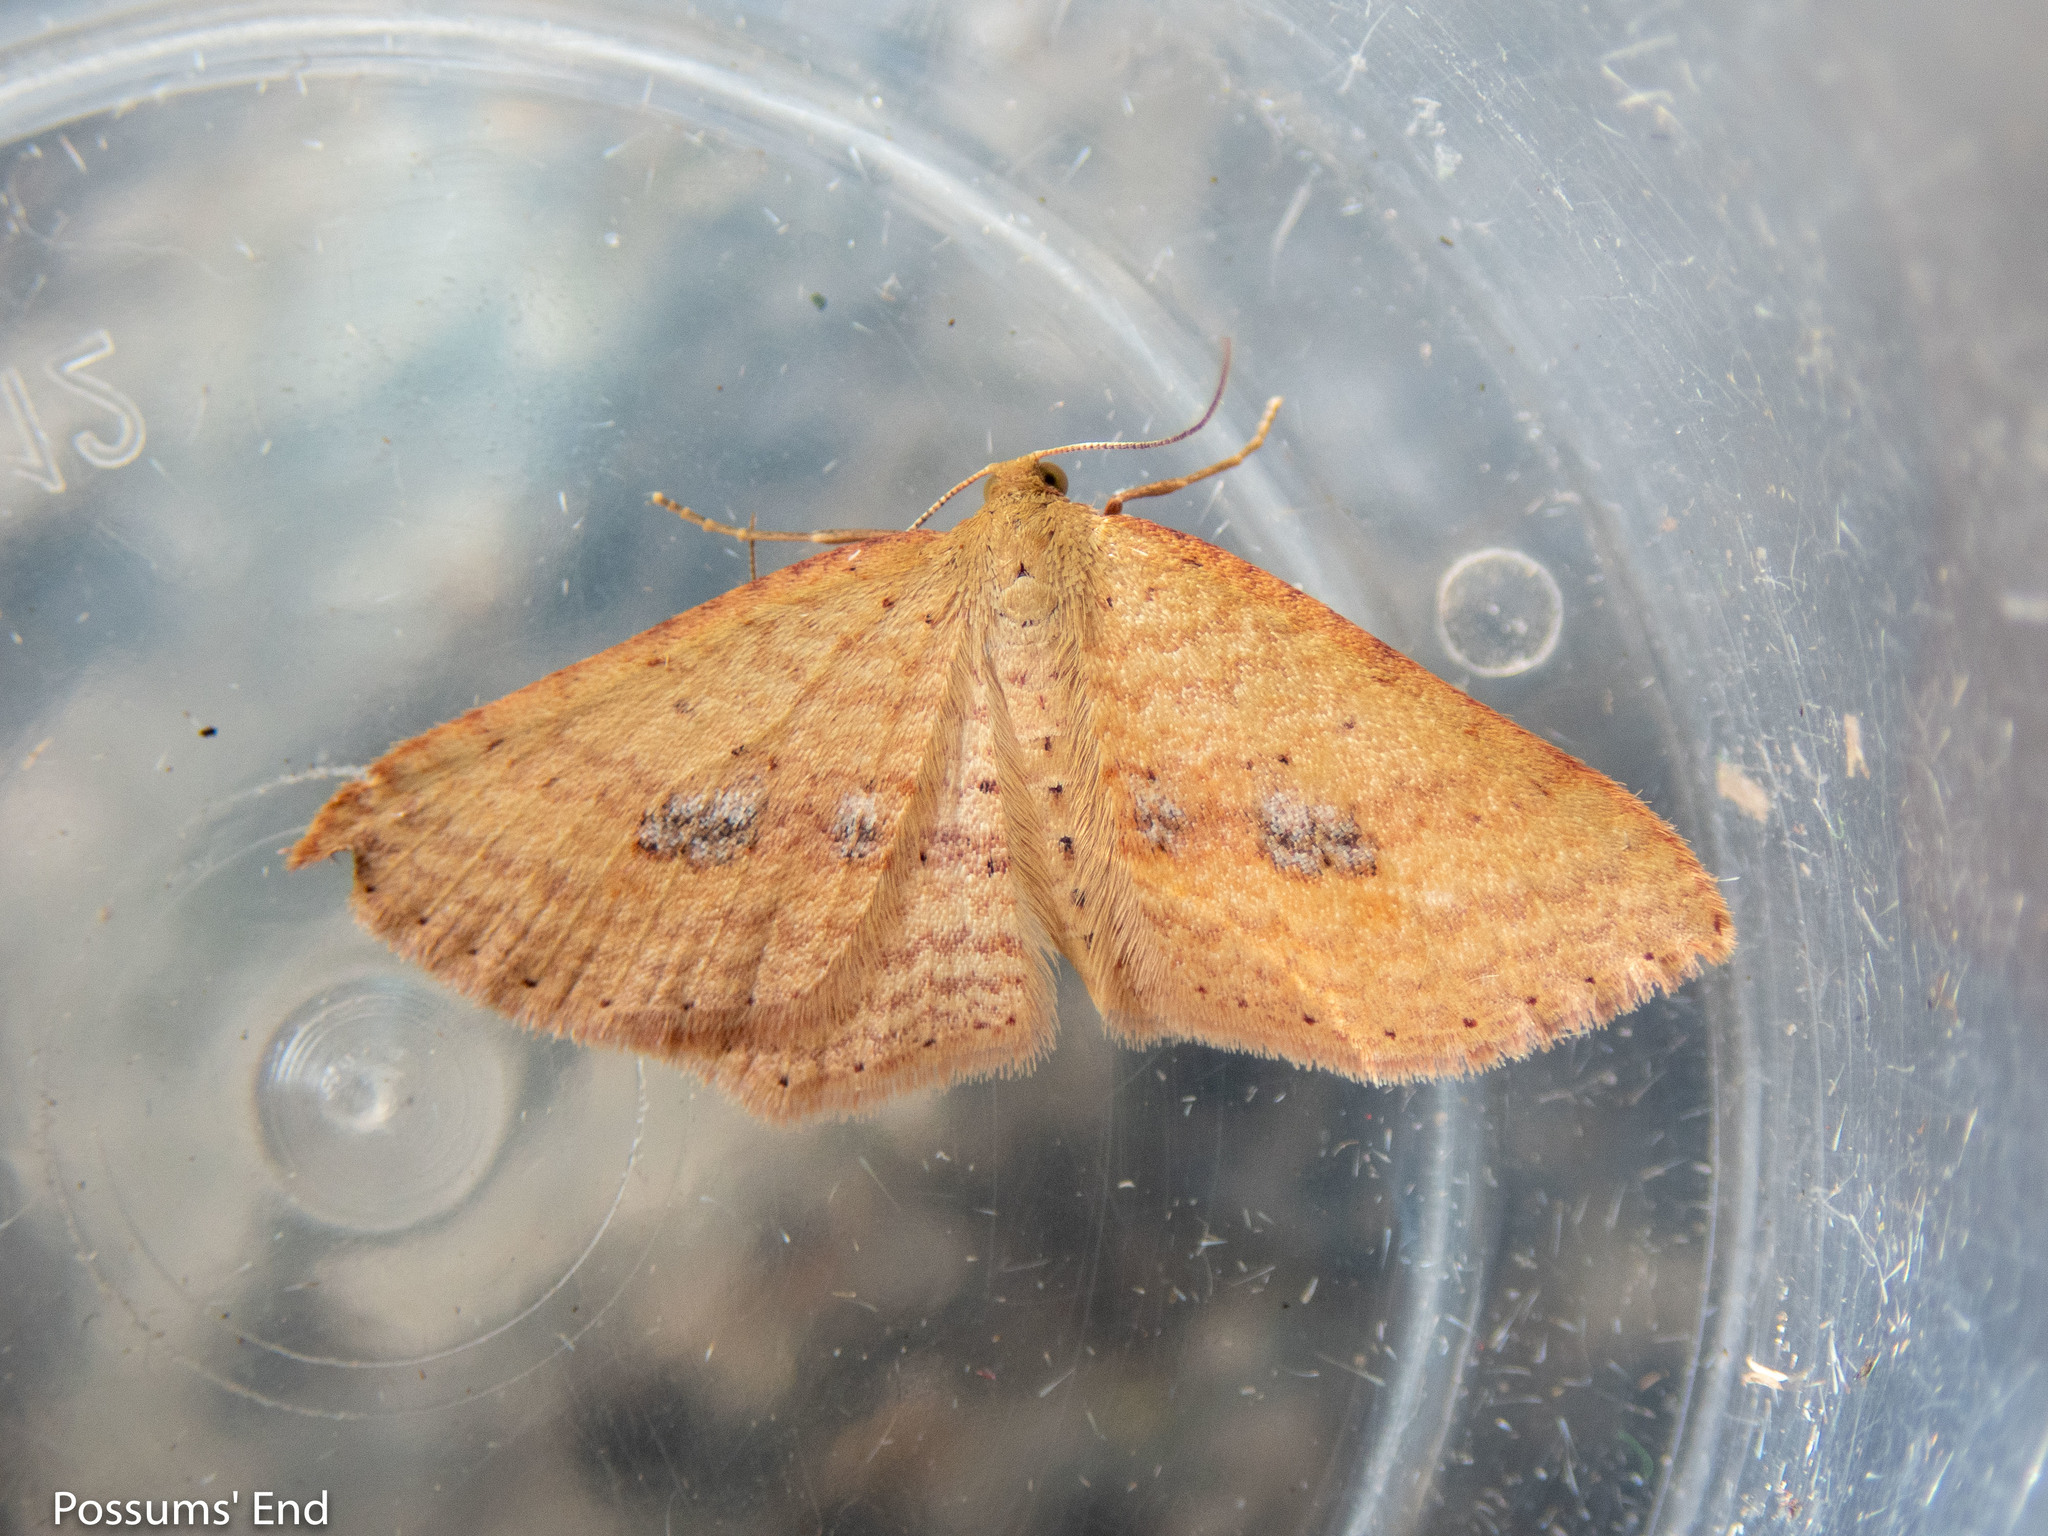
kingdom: Animalia
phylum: Arthropoda
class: Insecta
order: Lepidoptera
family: Geometridae
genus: Epicyme
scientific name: Epicyme rubropunctaria
